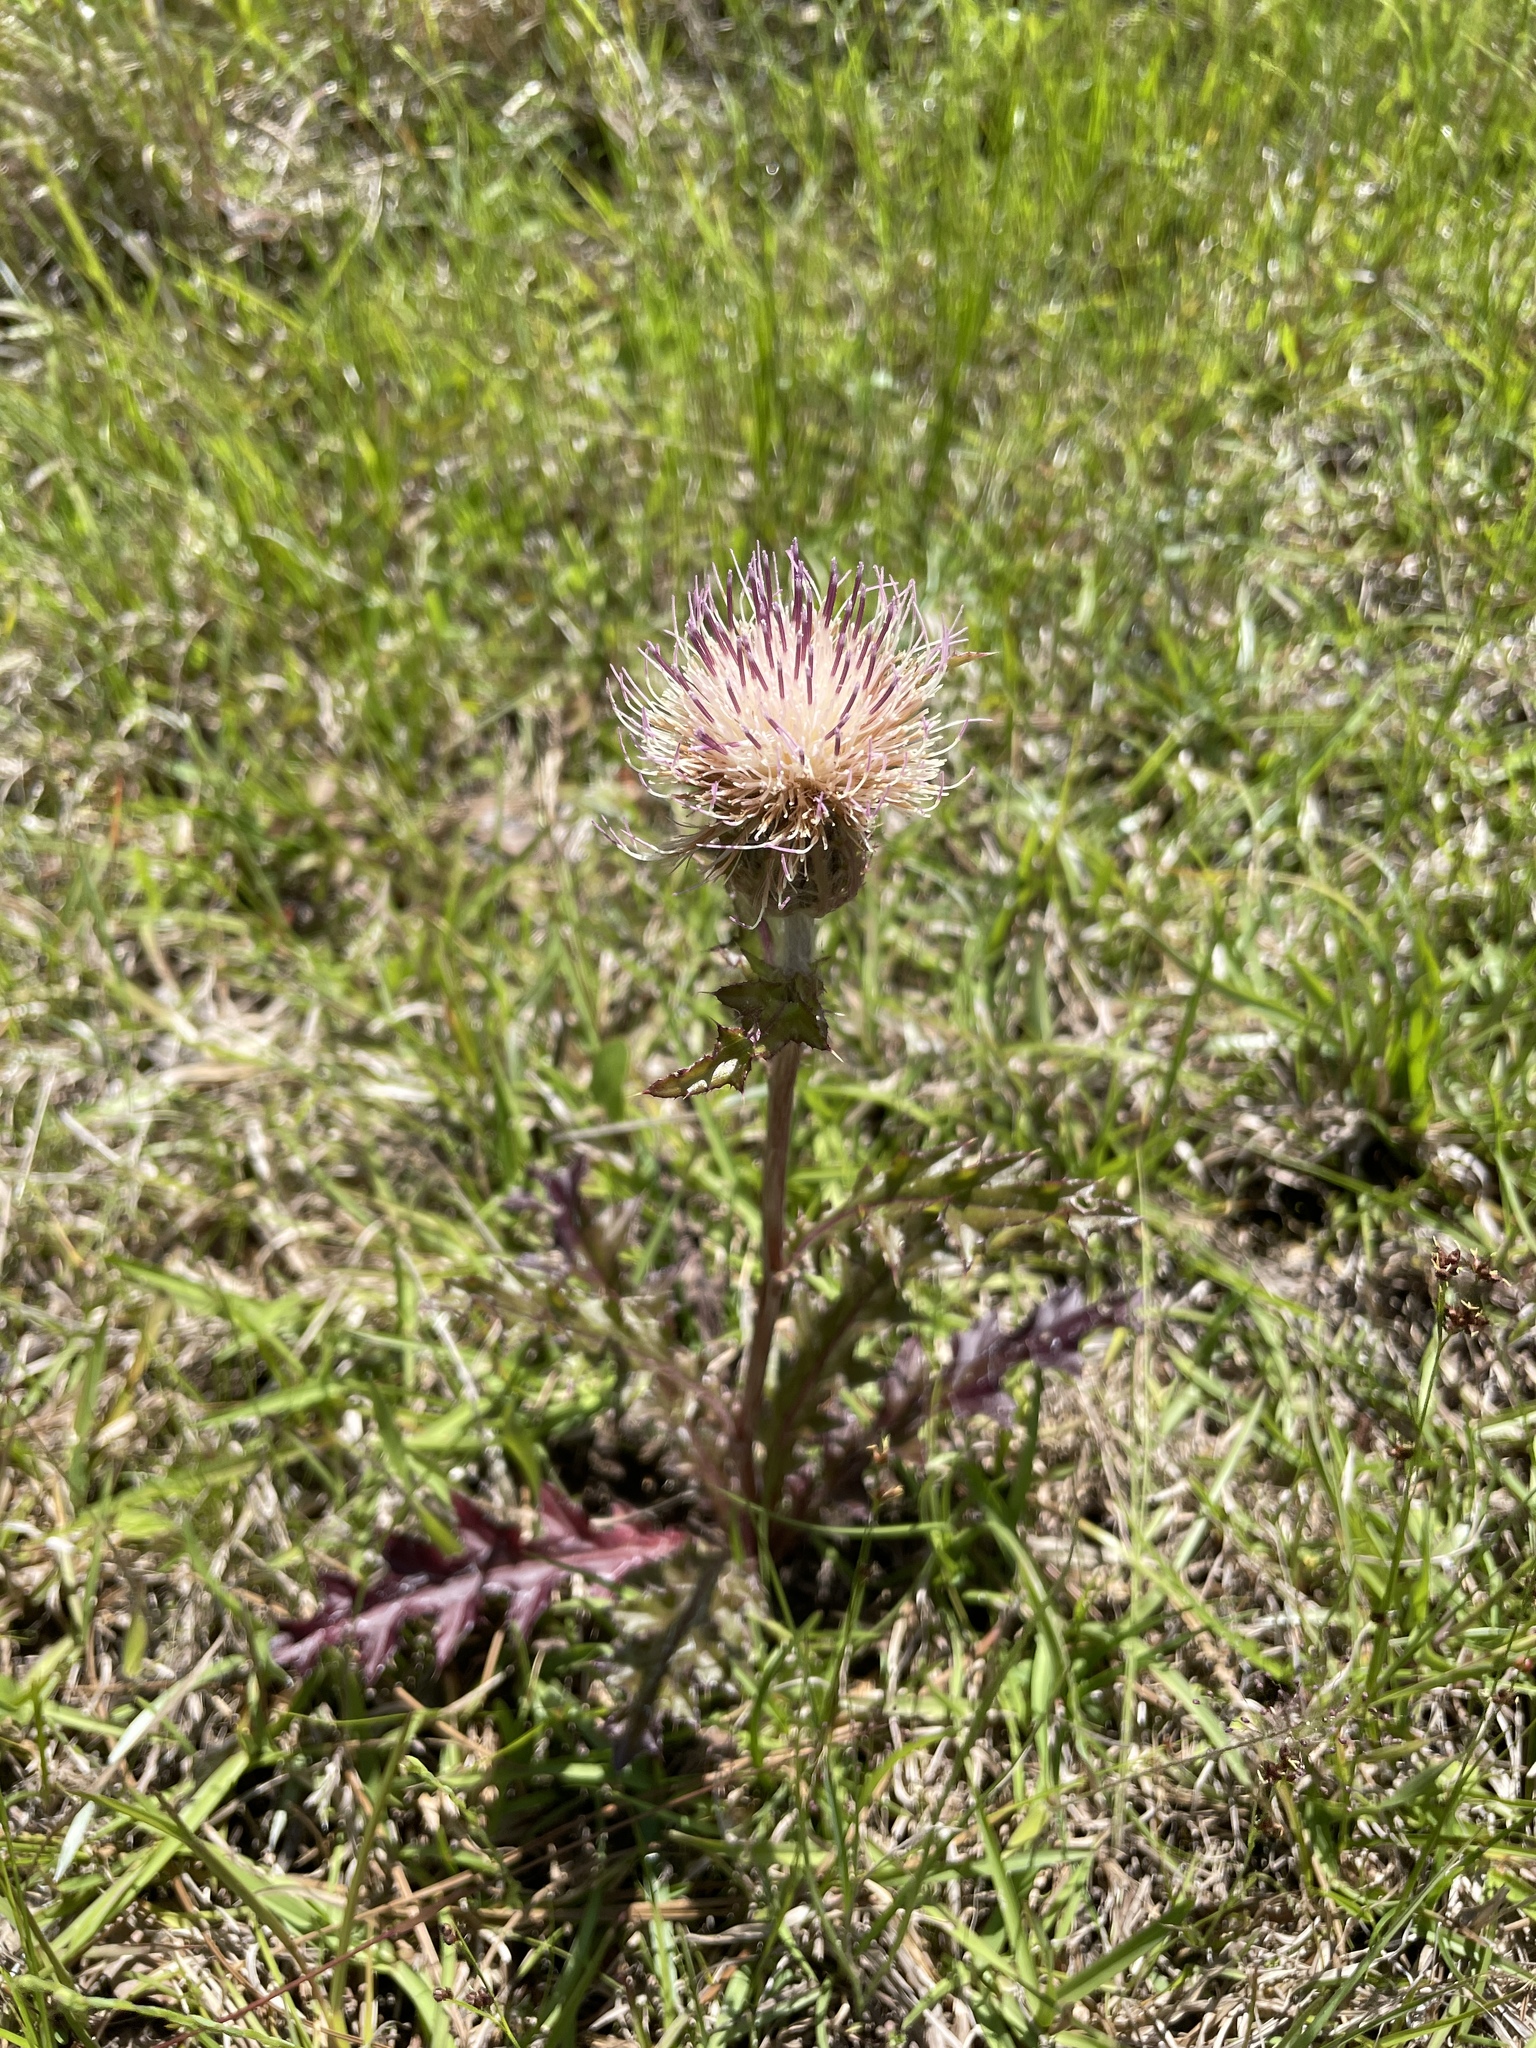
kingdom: Plantae
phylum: Tracheophyta
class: Magnoliopsida
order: Asterales
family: Asteraceae
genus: Cirsium
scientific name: Cirsium horridulum
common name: Bristly thistle
